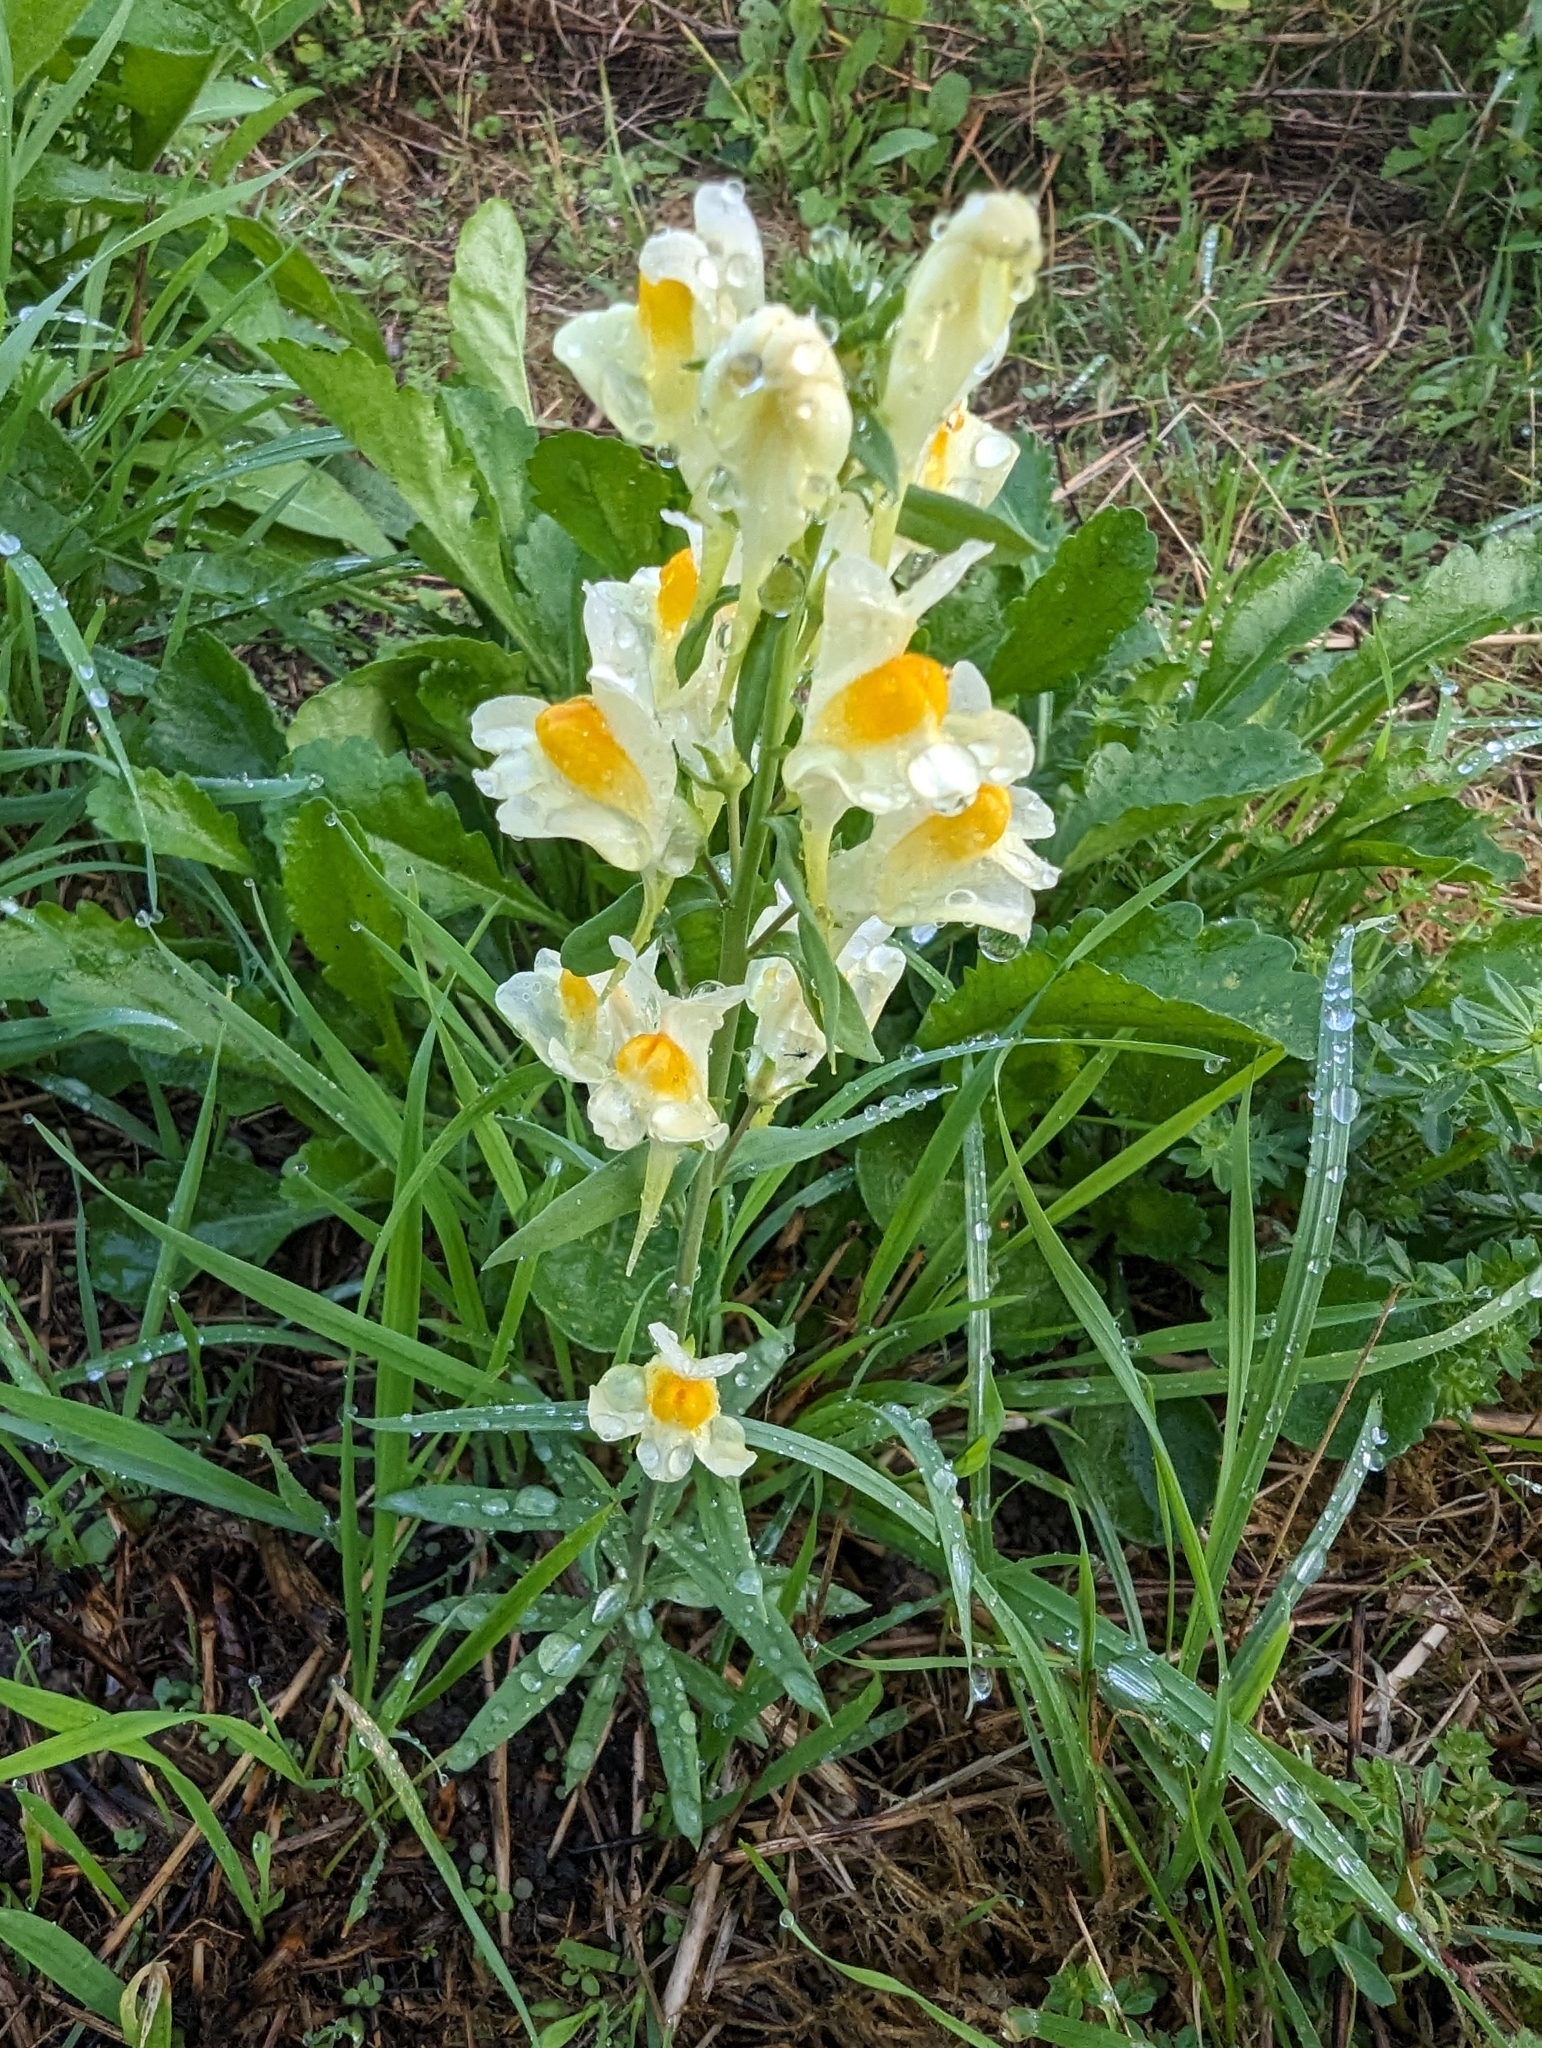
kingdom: Plantae
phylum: Tracheophyta
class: Magnoliopsida
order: Lamiales
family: Plantaginaceae
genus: Linaria
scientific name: Linaria vulgaris
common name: Butter and eggs
